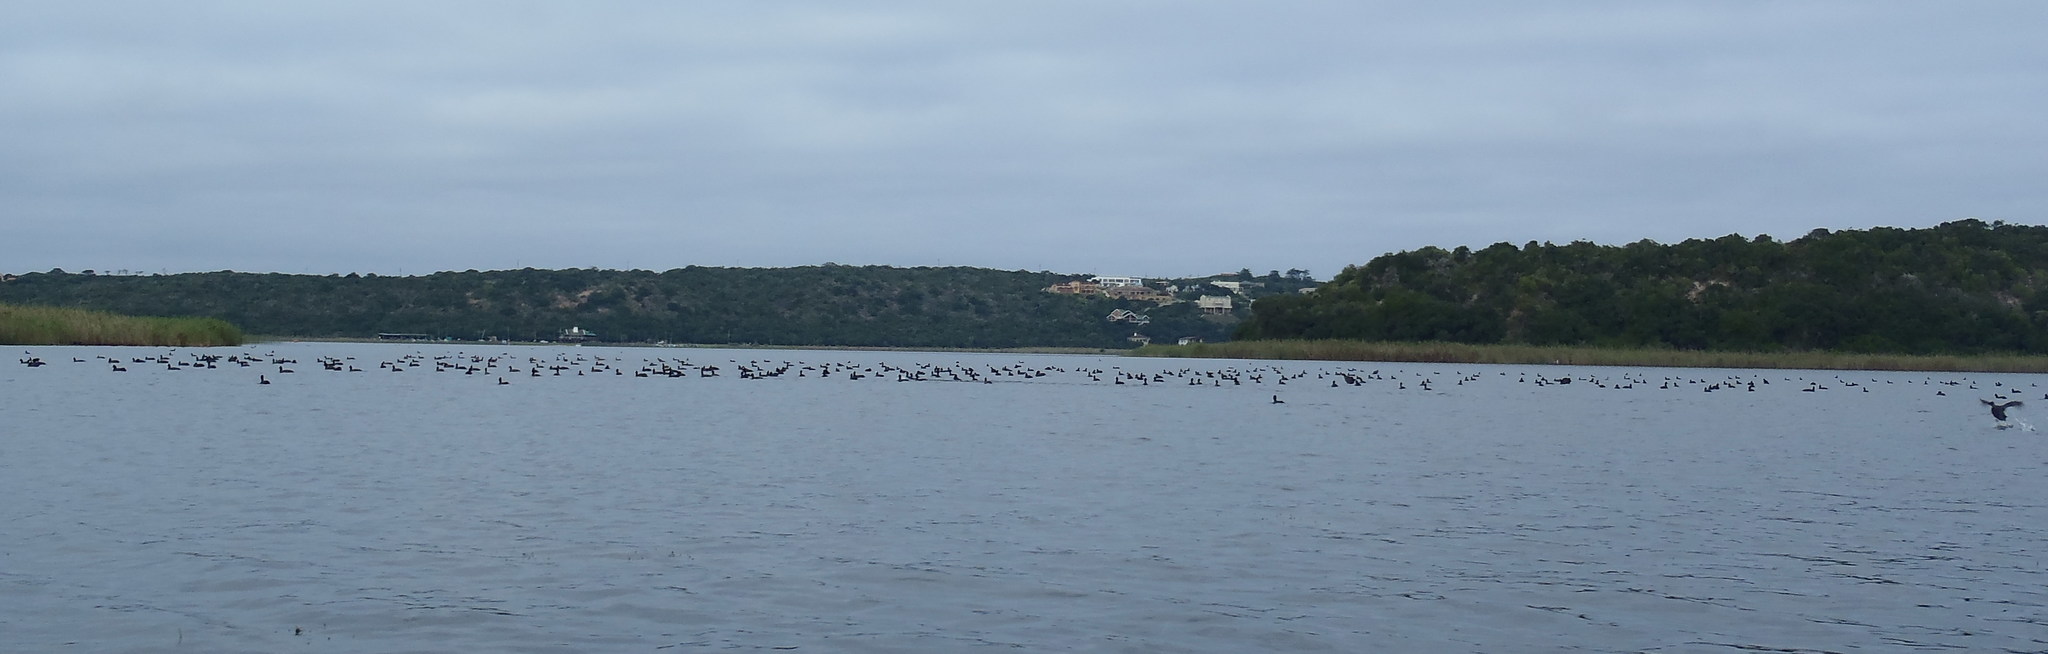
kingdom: Animalia
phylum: Chordata
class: Aves
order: Gruiformes
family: Rallidae
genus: Fulica
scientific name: Fulica cristata
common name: Red-knobbed coot
